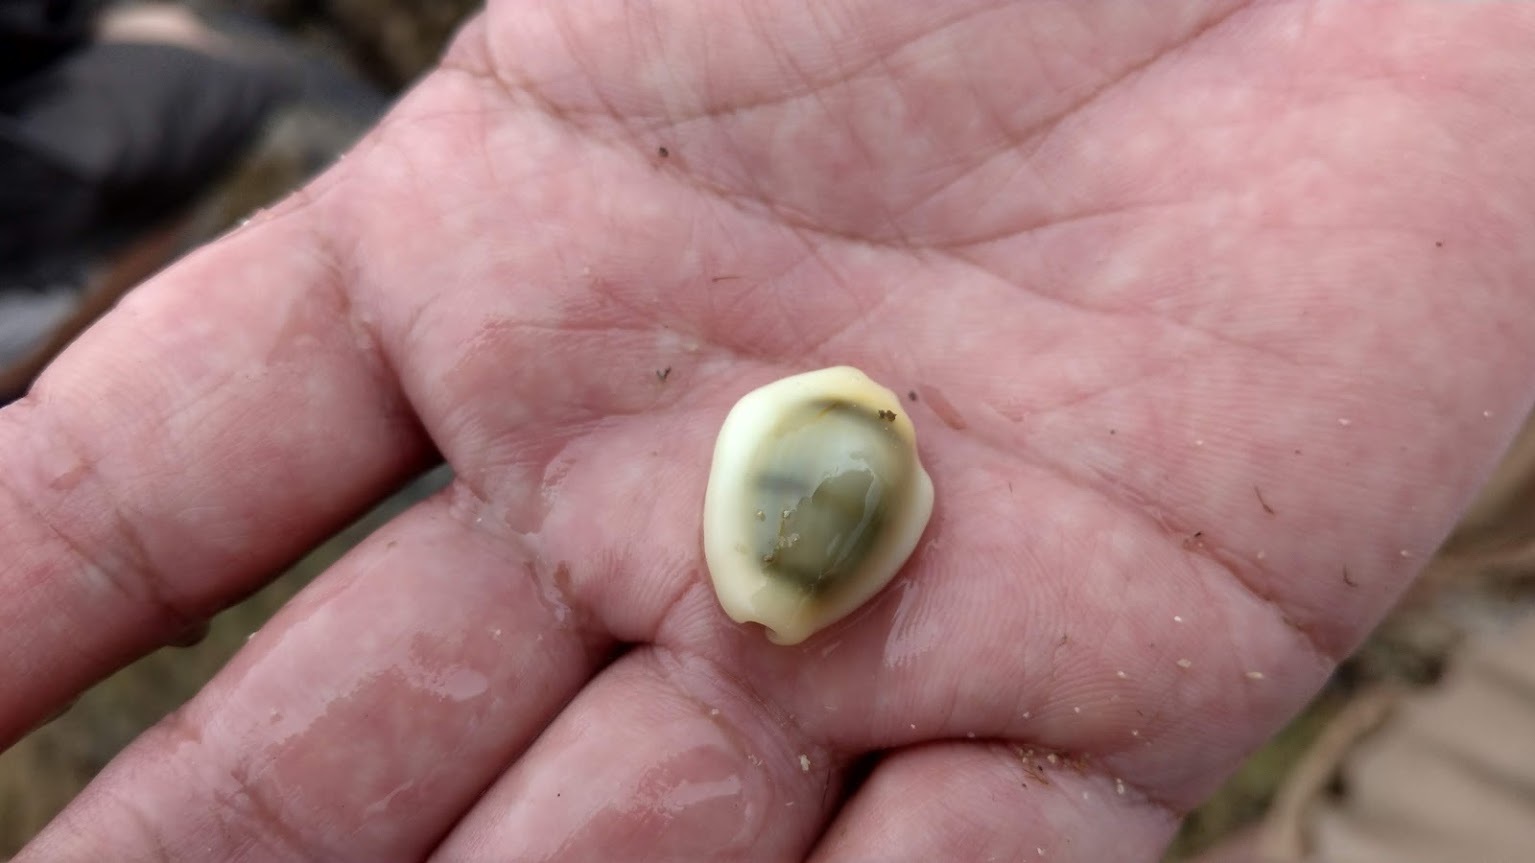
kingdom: Animalia
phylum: Mollusca
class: Gastropoda
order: Littorinimorpha
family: Cypraeidae
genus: Monetaria
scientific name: Monetaria moneta
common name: Money cowrie
